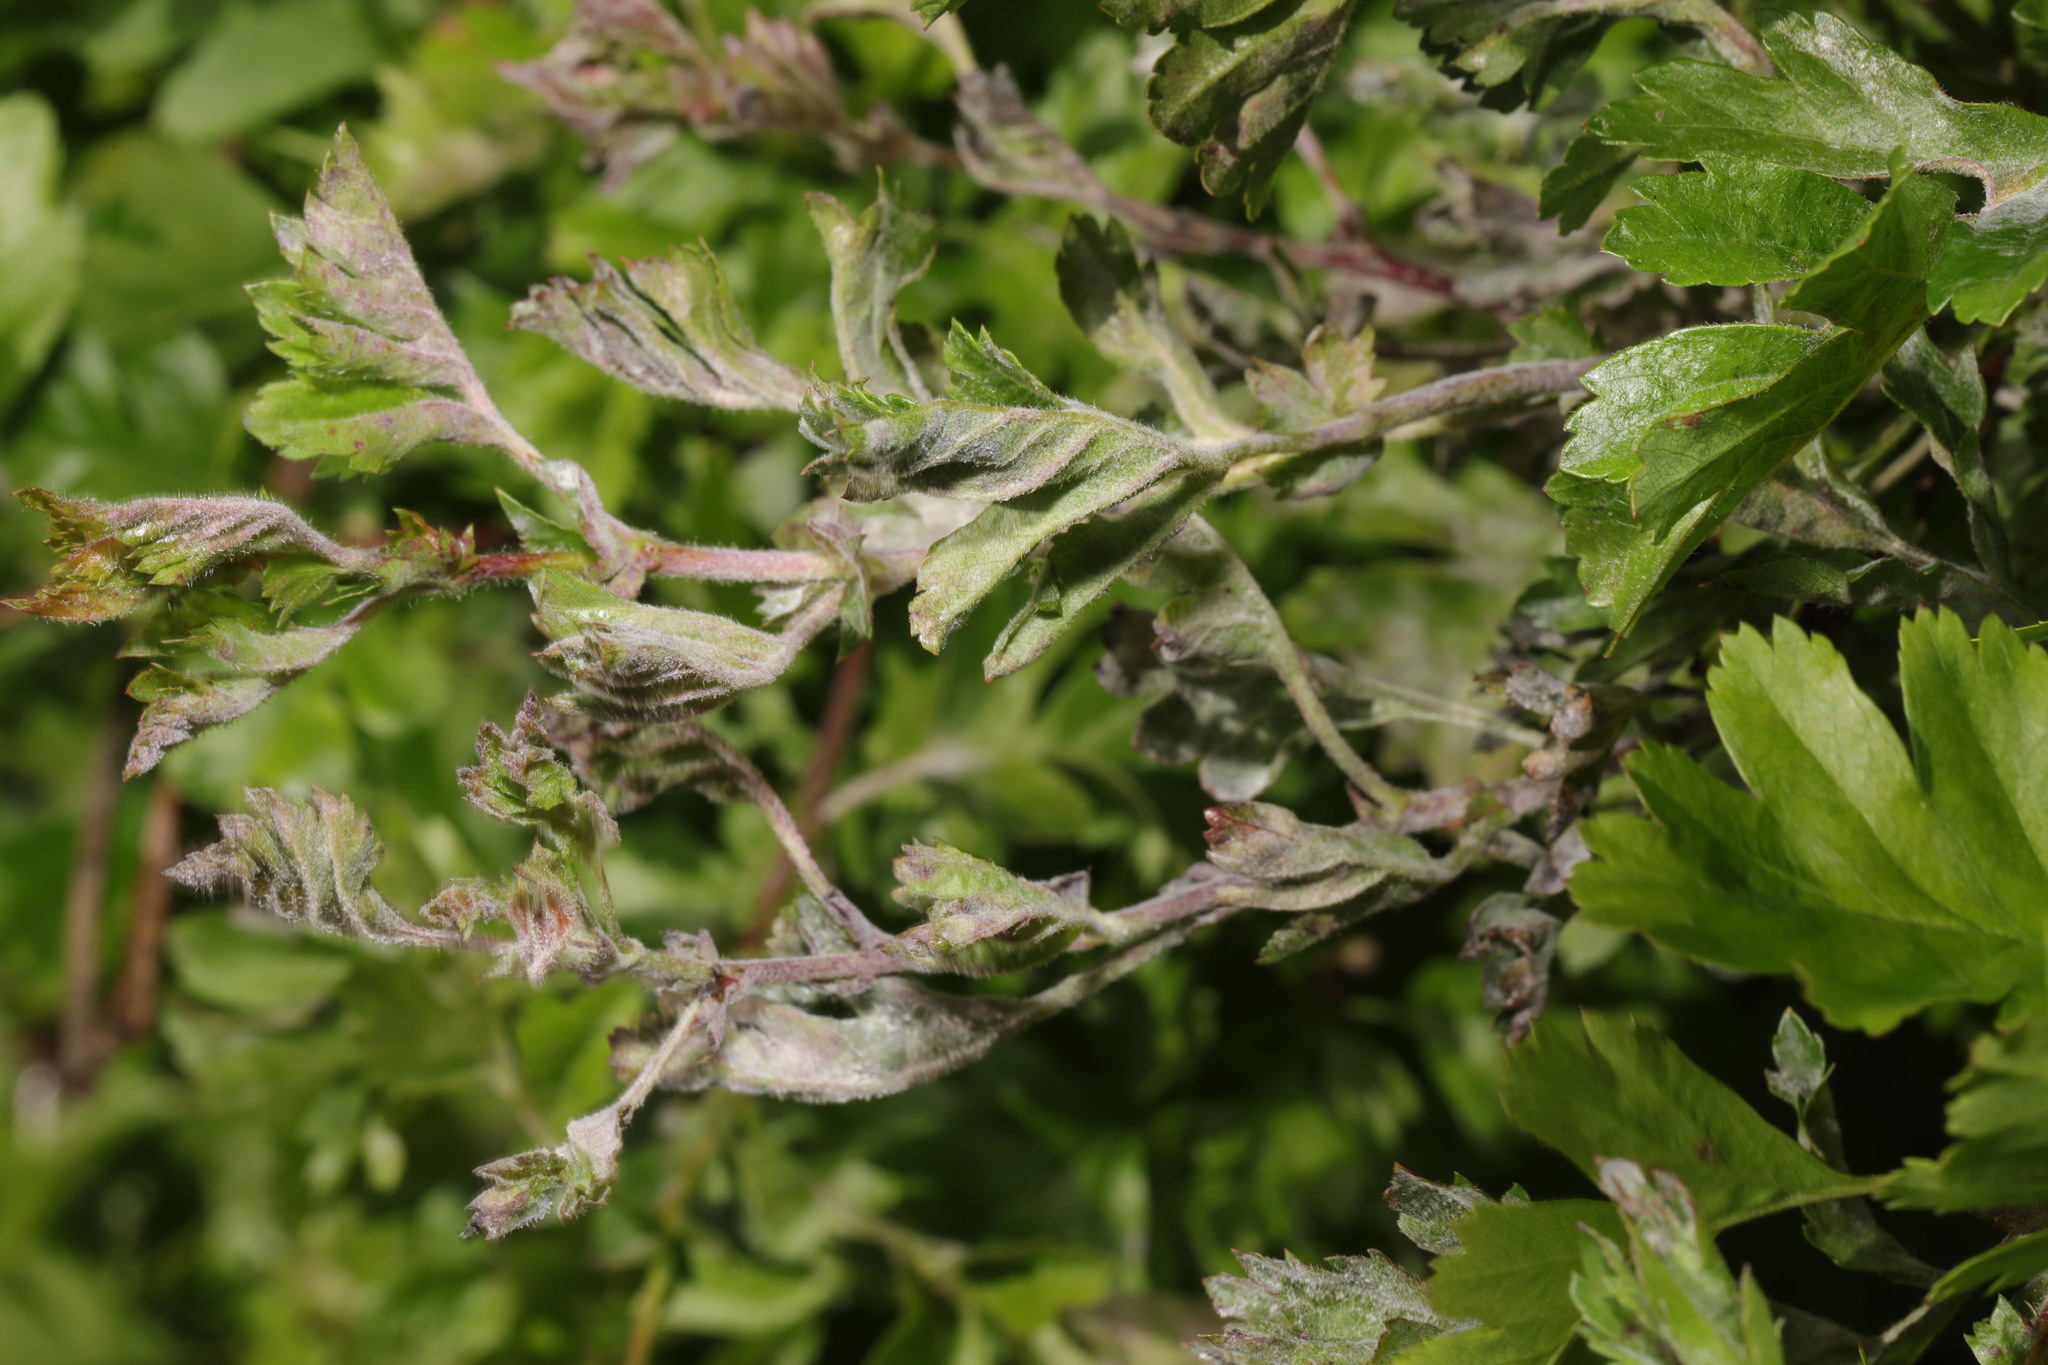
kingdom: Fungi
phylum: Ascomycota
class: Leotiomycetes
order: Helotiales
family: Erysiphaceae
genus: Podosphaera
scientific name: Podosphaera clandestina
